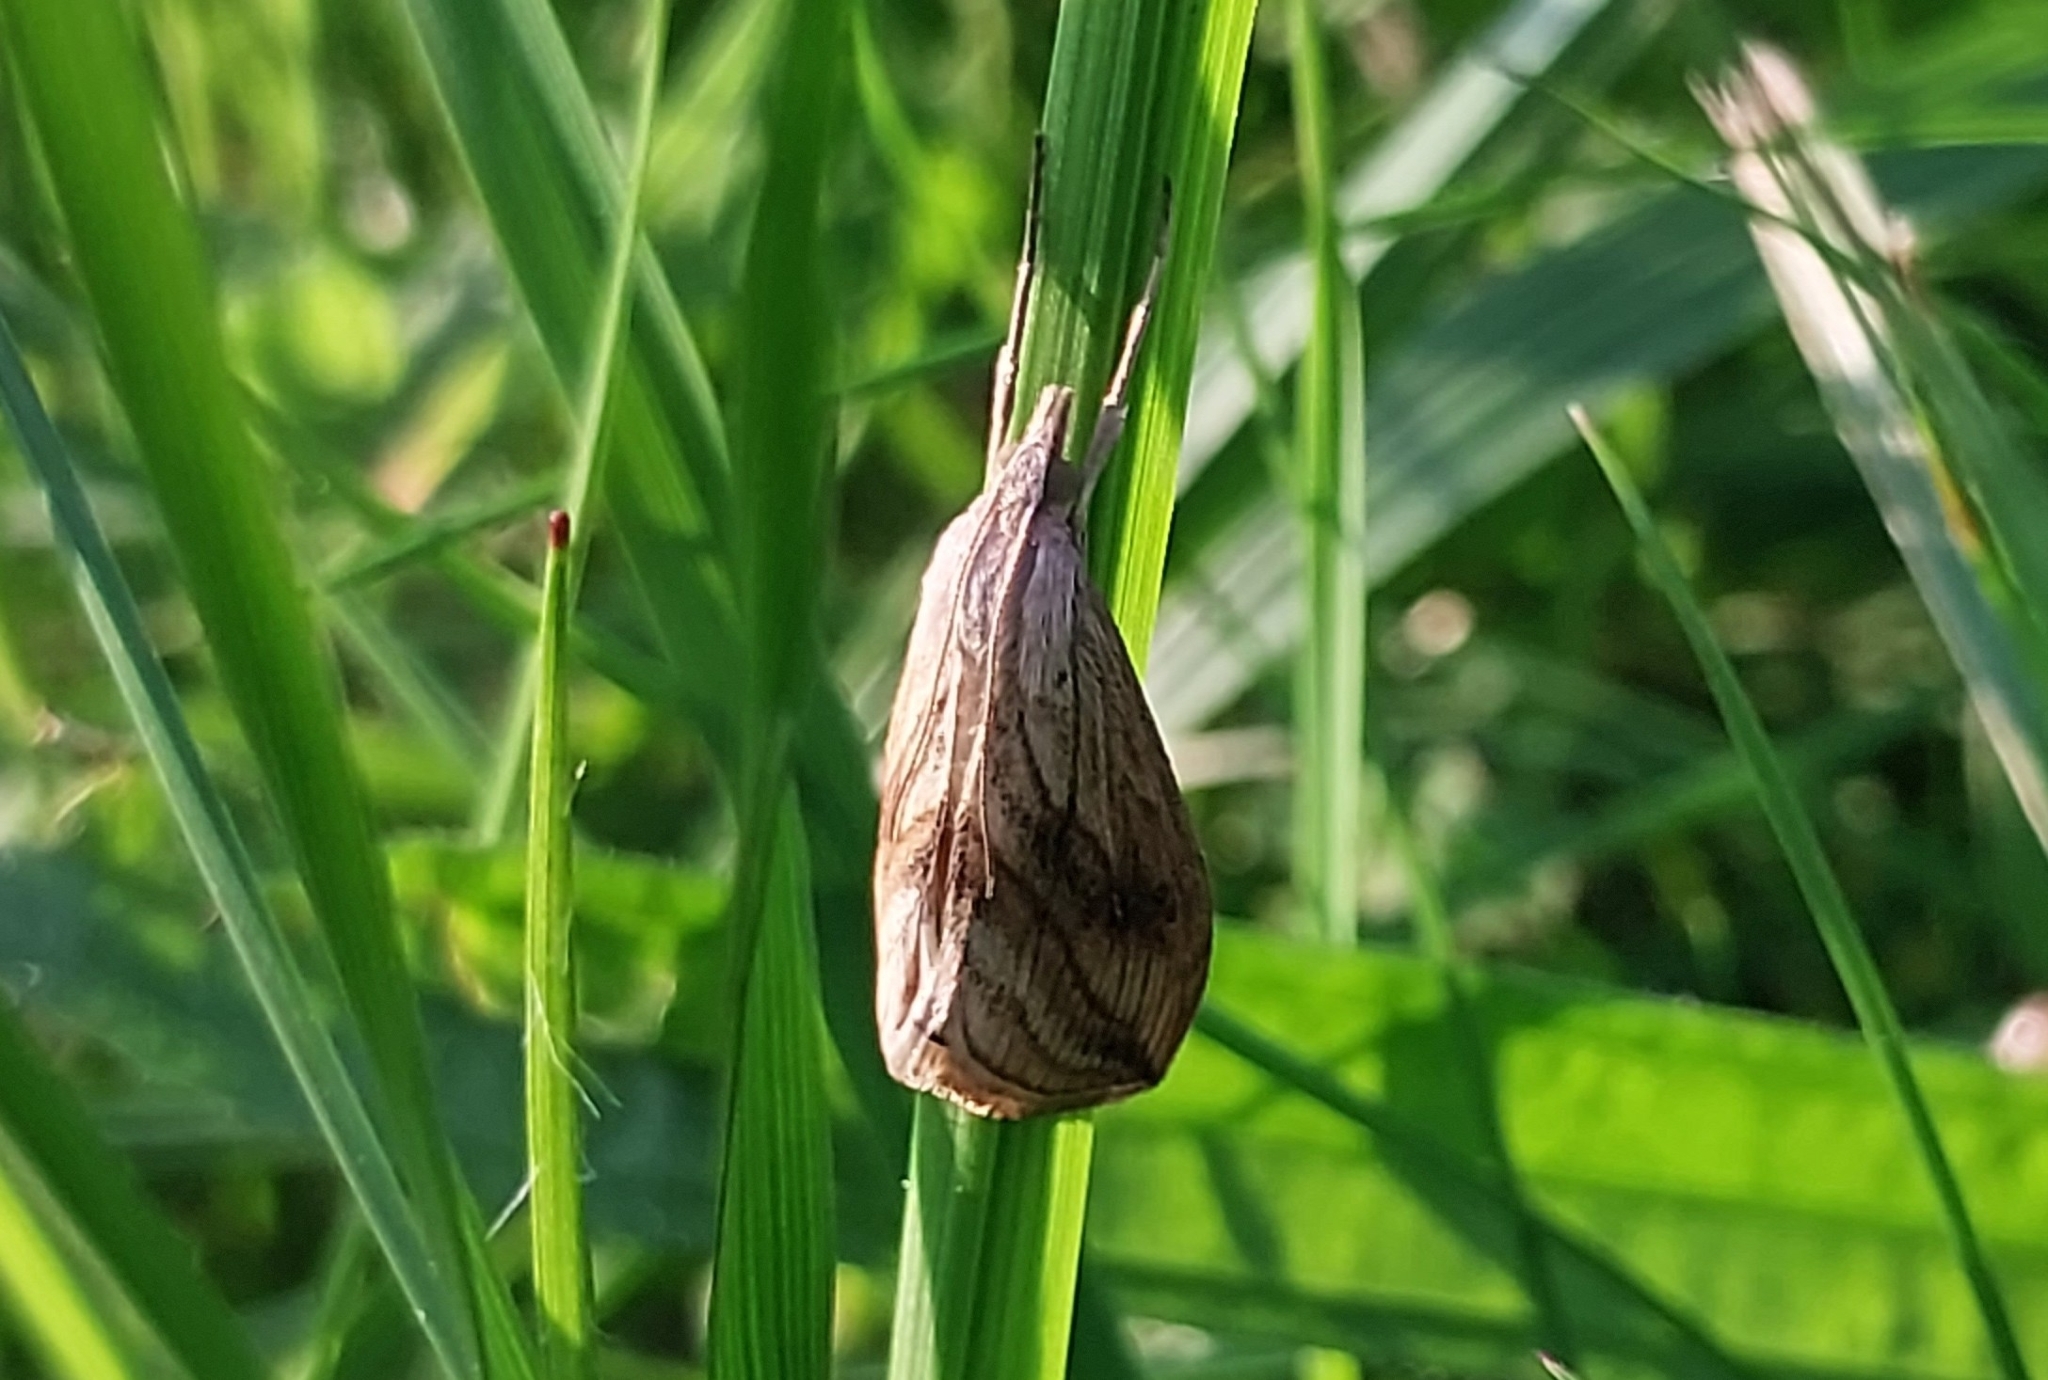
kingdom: Animalia
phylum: Arthropoda
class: Insecta
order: Lepidoptera
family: Crambidae
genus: Evergestis
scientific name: Evergestis forficalis
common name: Garden pebble
